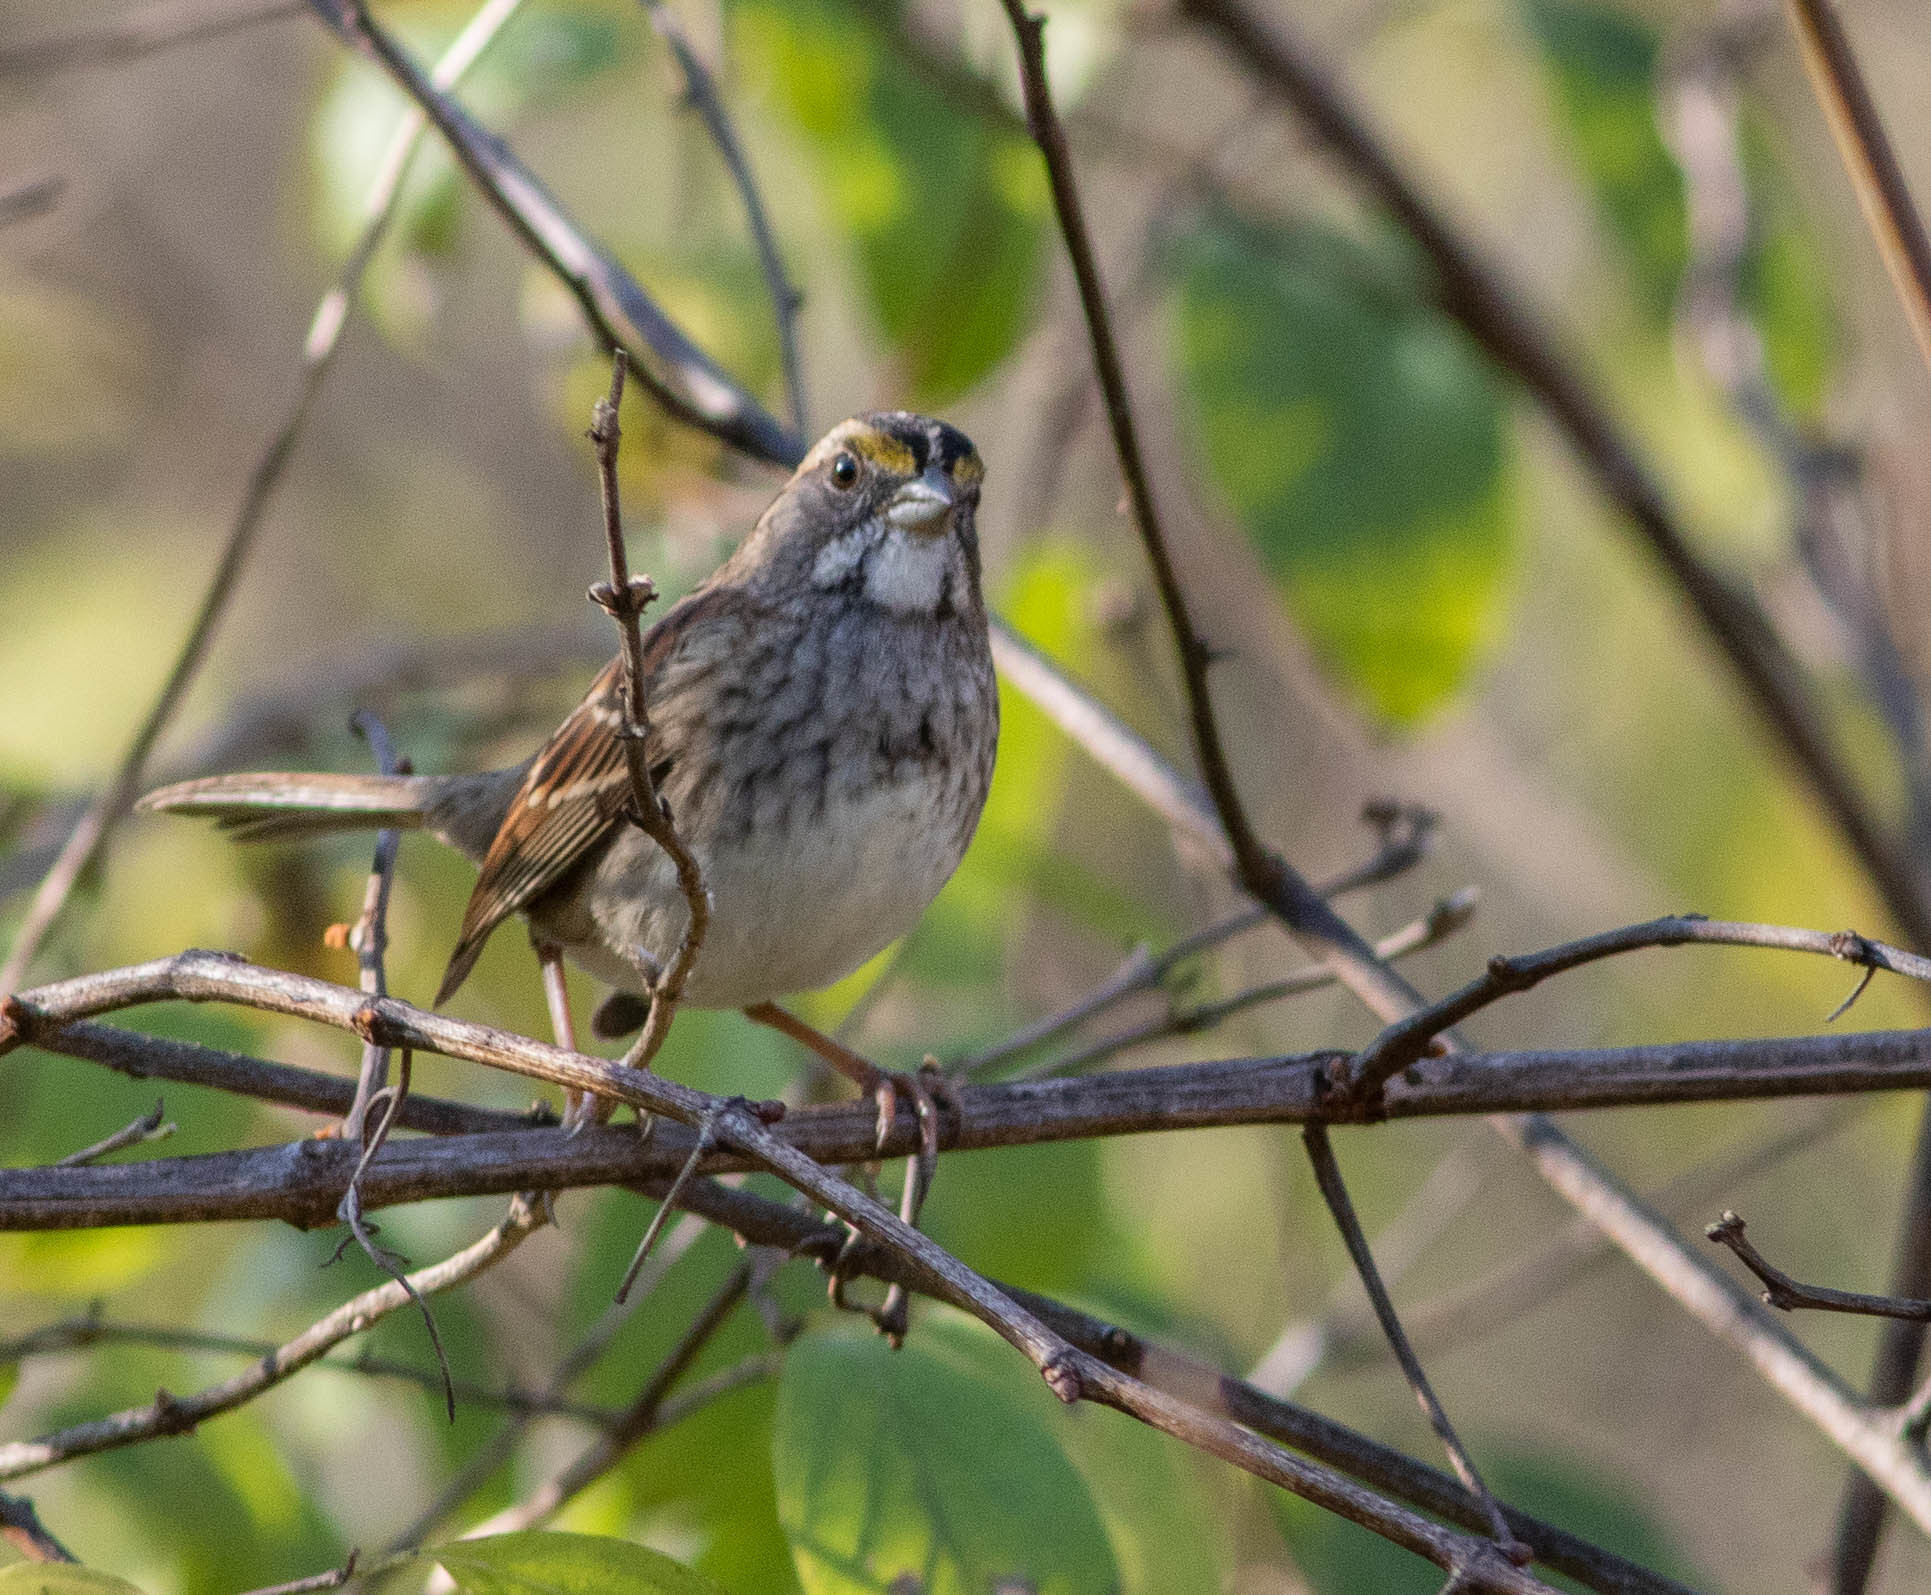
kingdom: Animalia
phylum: Chordata
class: Aves
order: Passeriformes
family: Passerellidae
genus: Zonotrichia
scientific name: Zonotrichia albicollis
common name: White-throated sparrow
